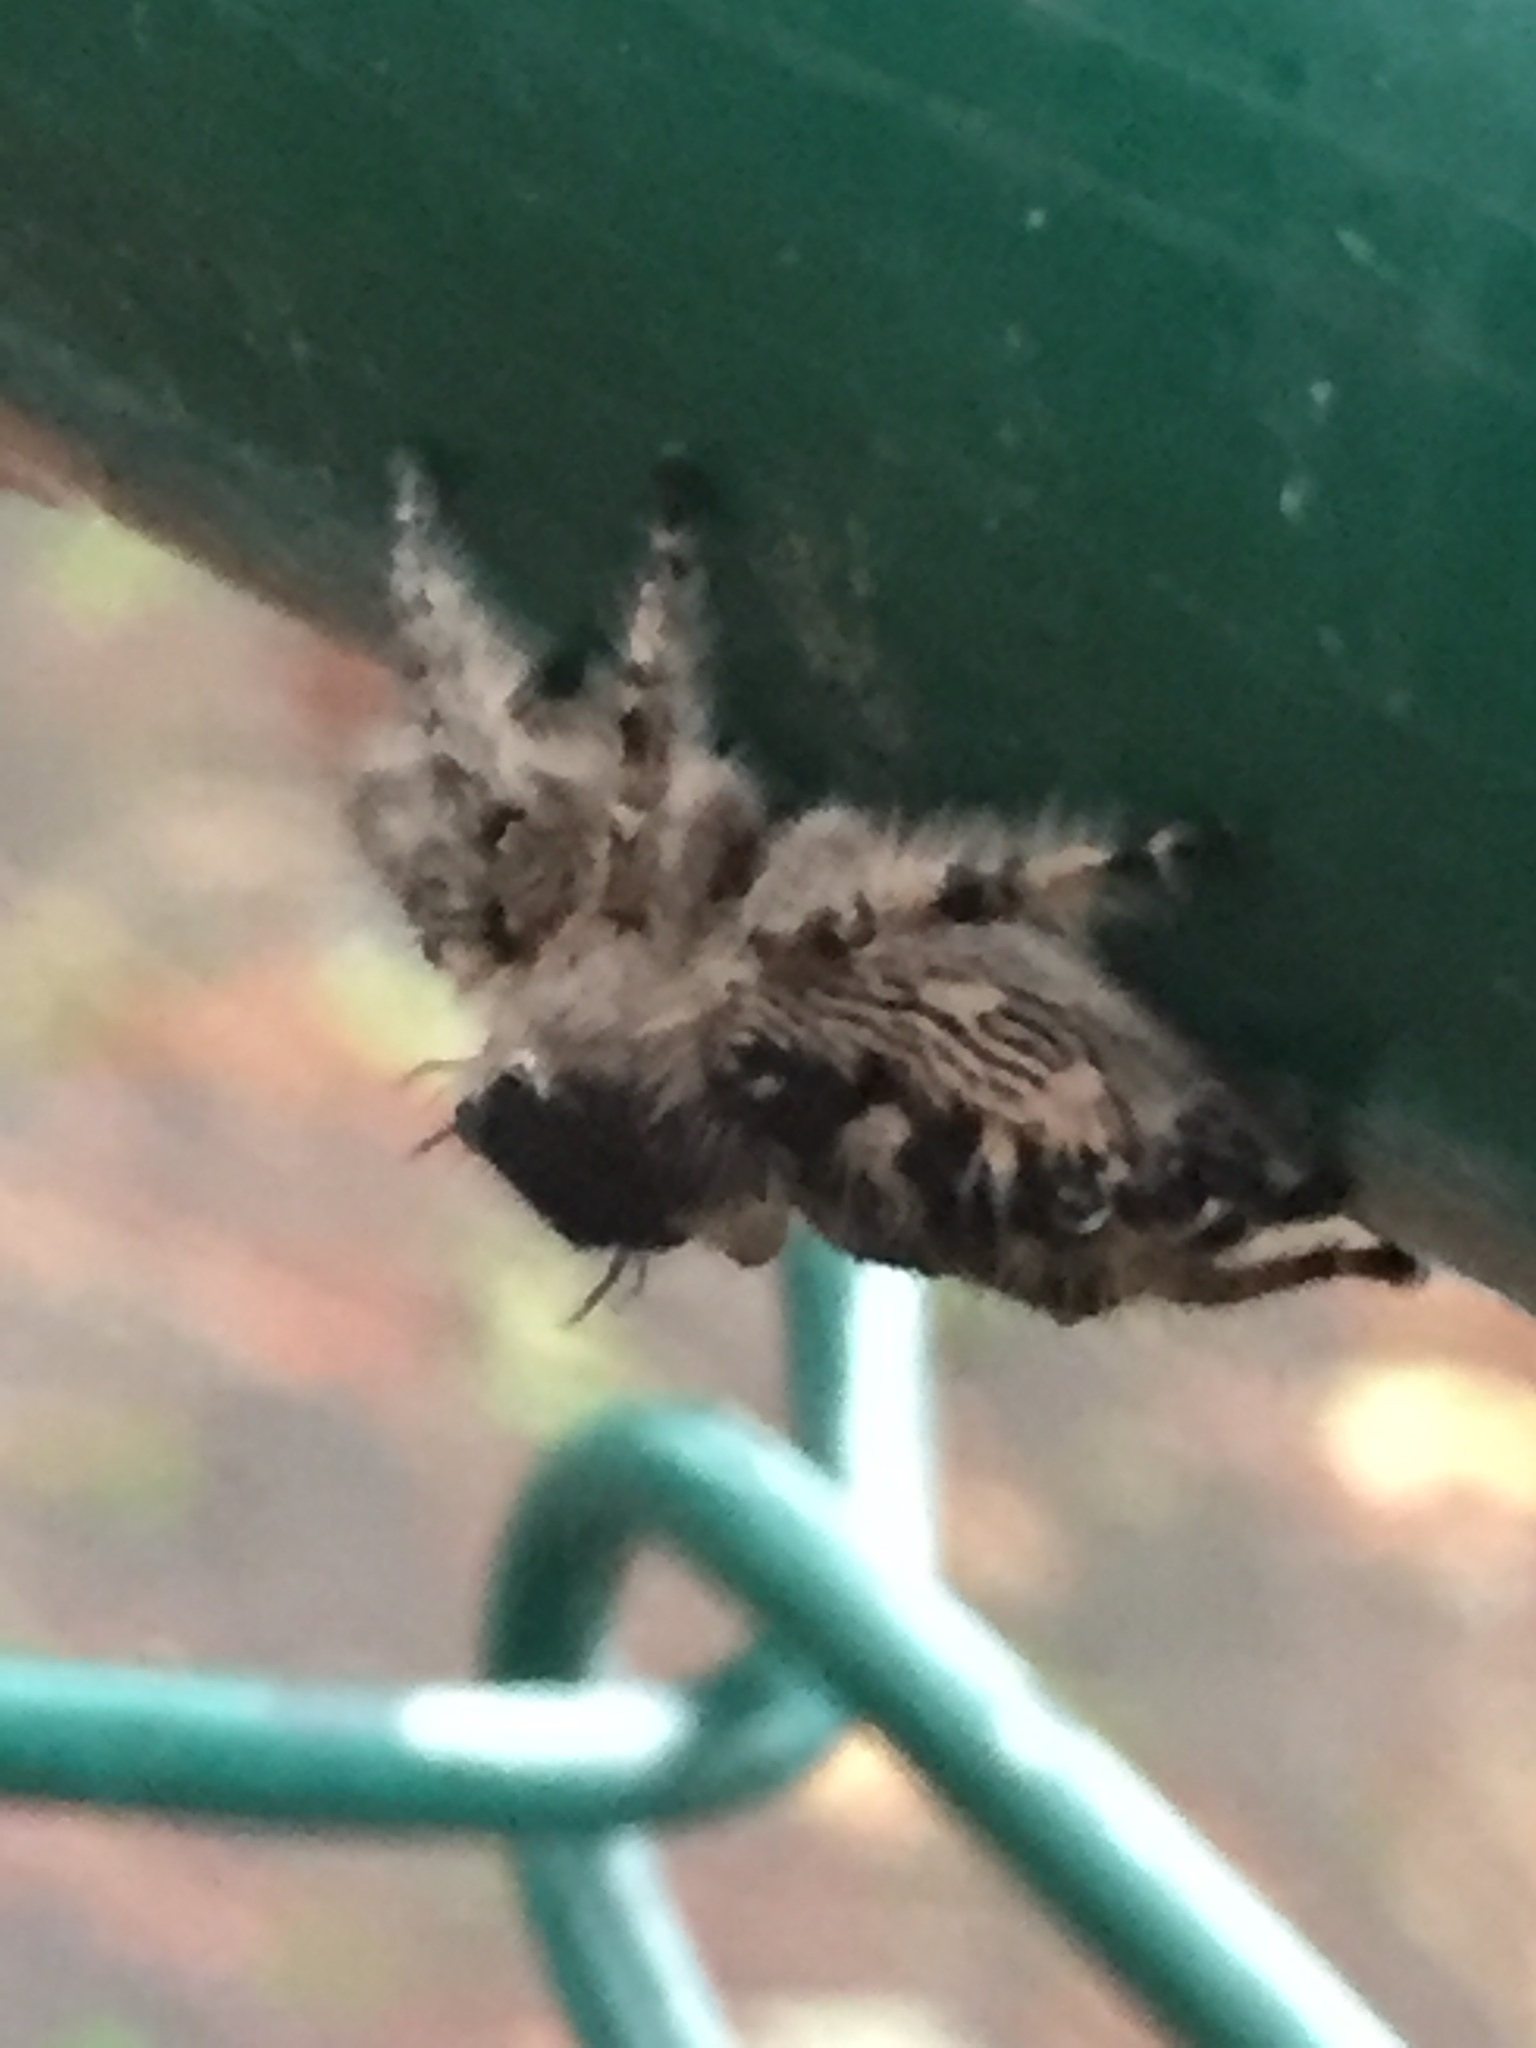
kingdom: Animalia
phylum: Arthropoda
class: Arachnida
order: Araneae
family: Salticidae
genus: Phidippus
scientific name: Phidippus otiosus
